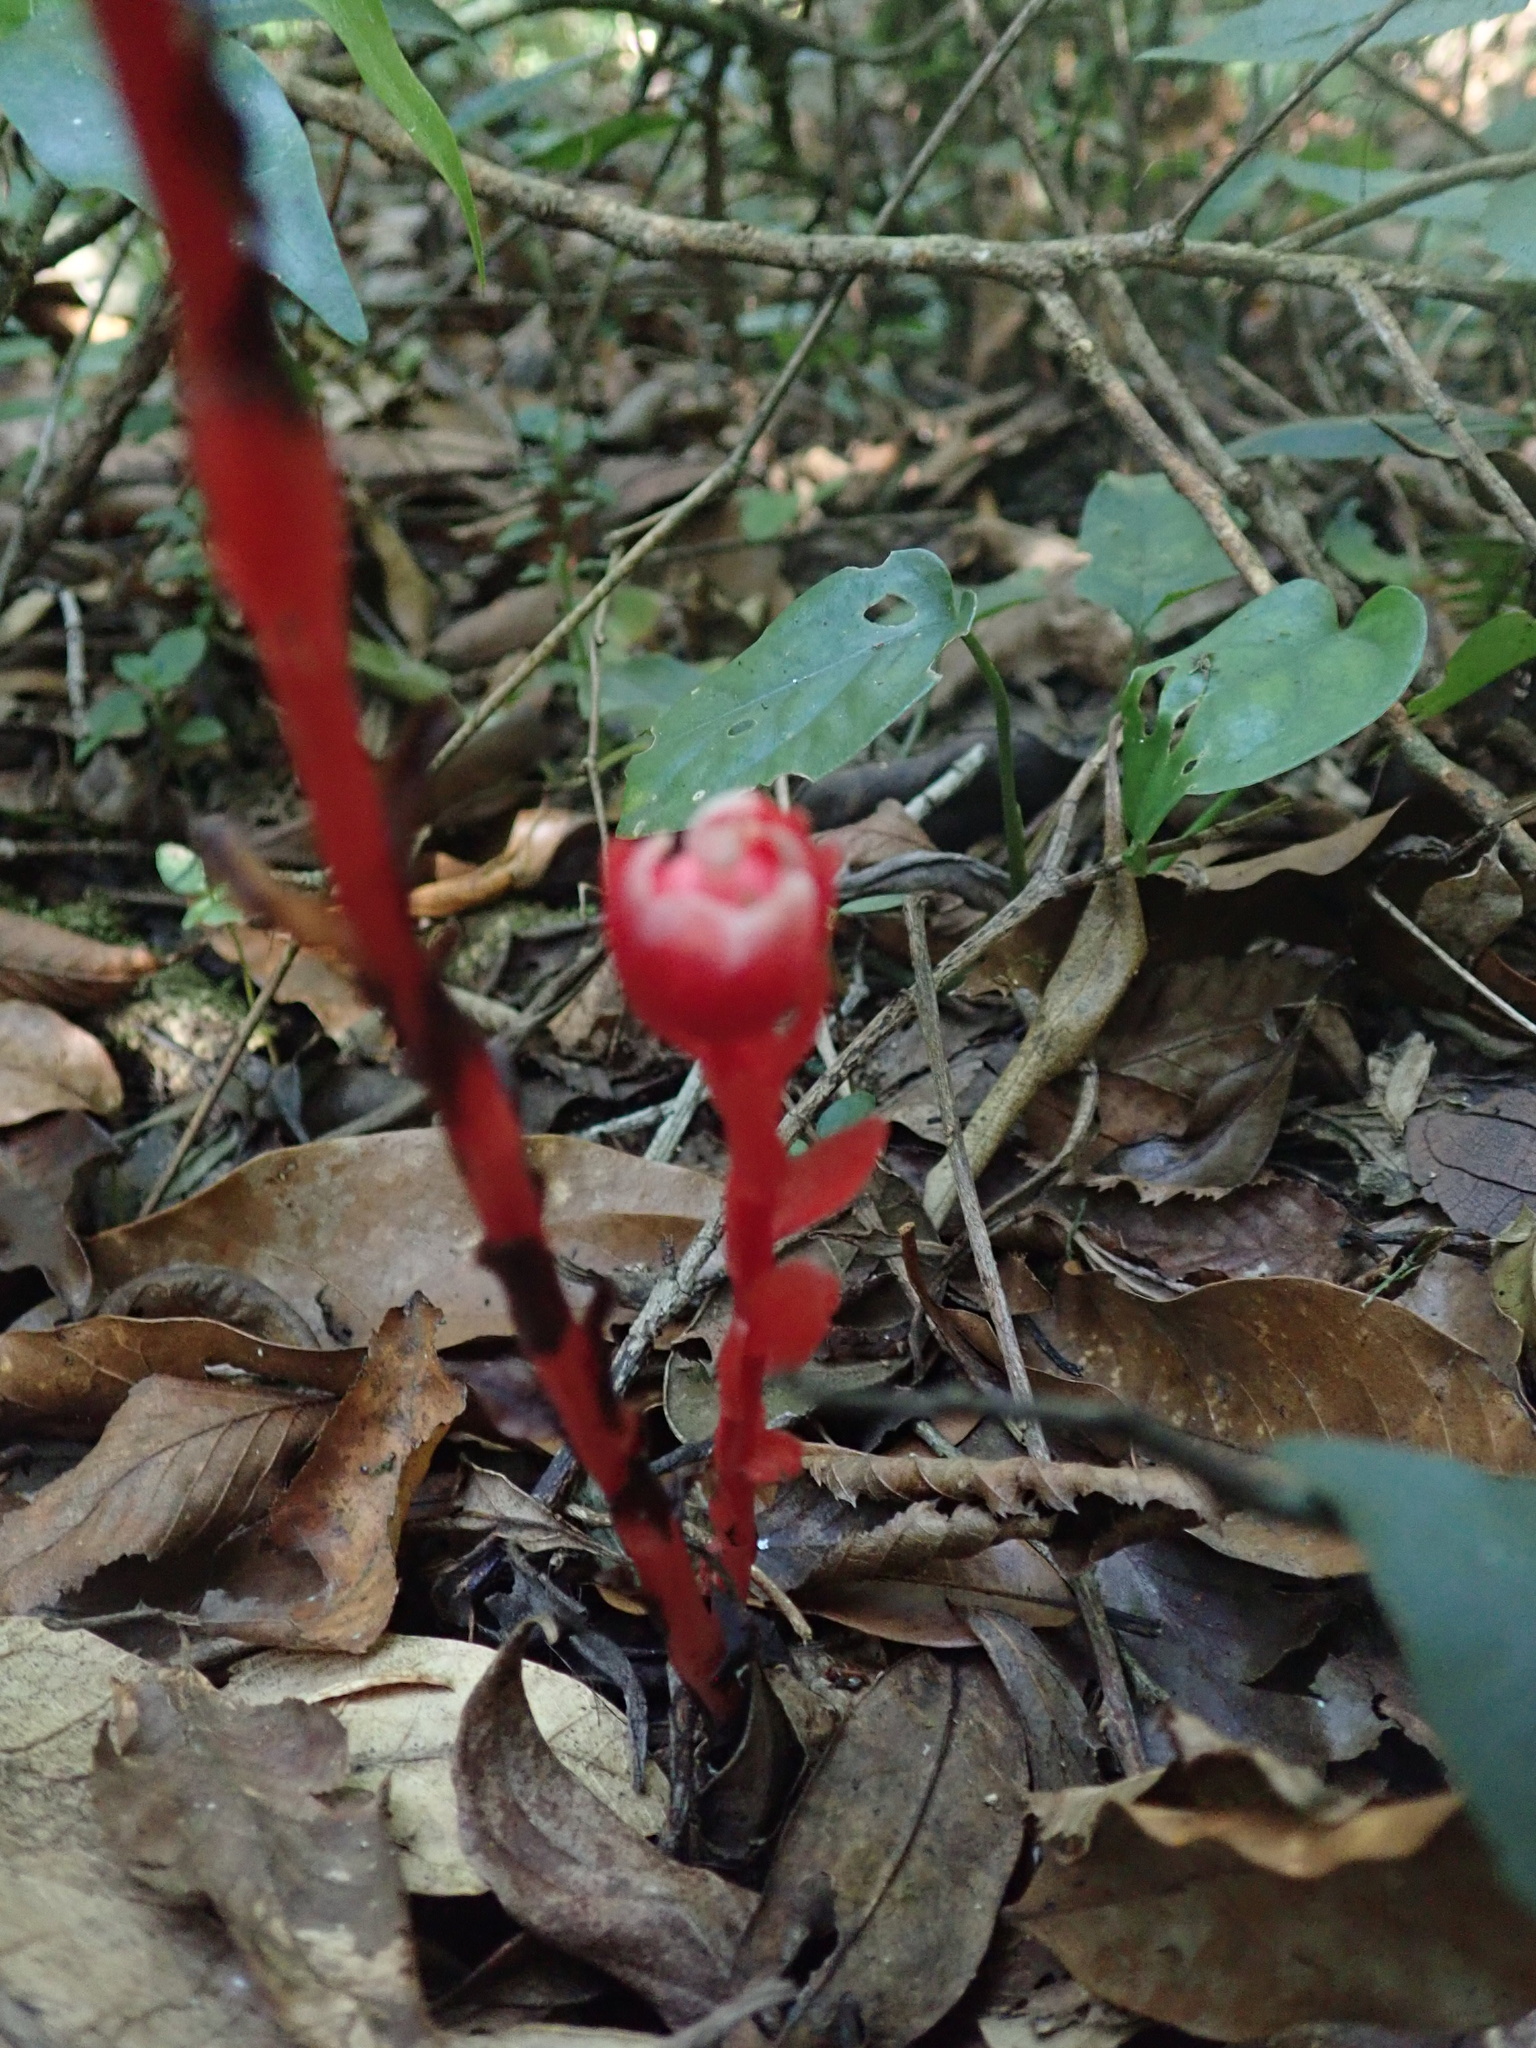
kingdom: Plantae
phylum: Tracheophyta
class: Magnoliopsida
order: Ericales
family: Ericaceae
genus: Monotropa
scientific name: Monotropa coccinea
